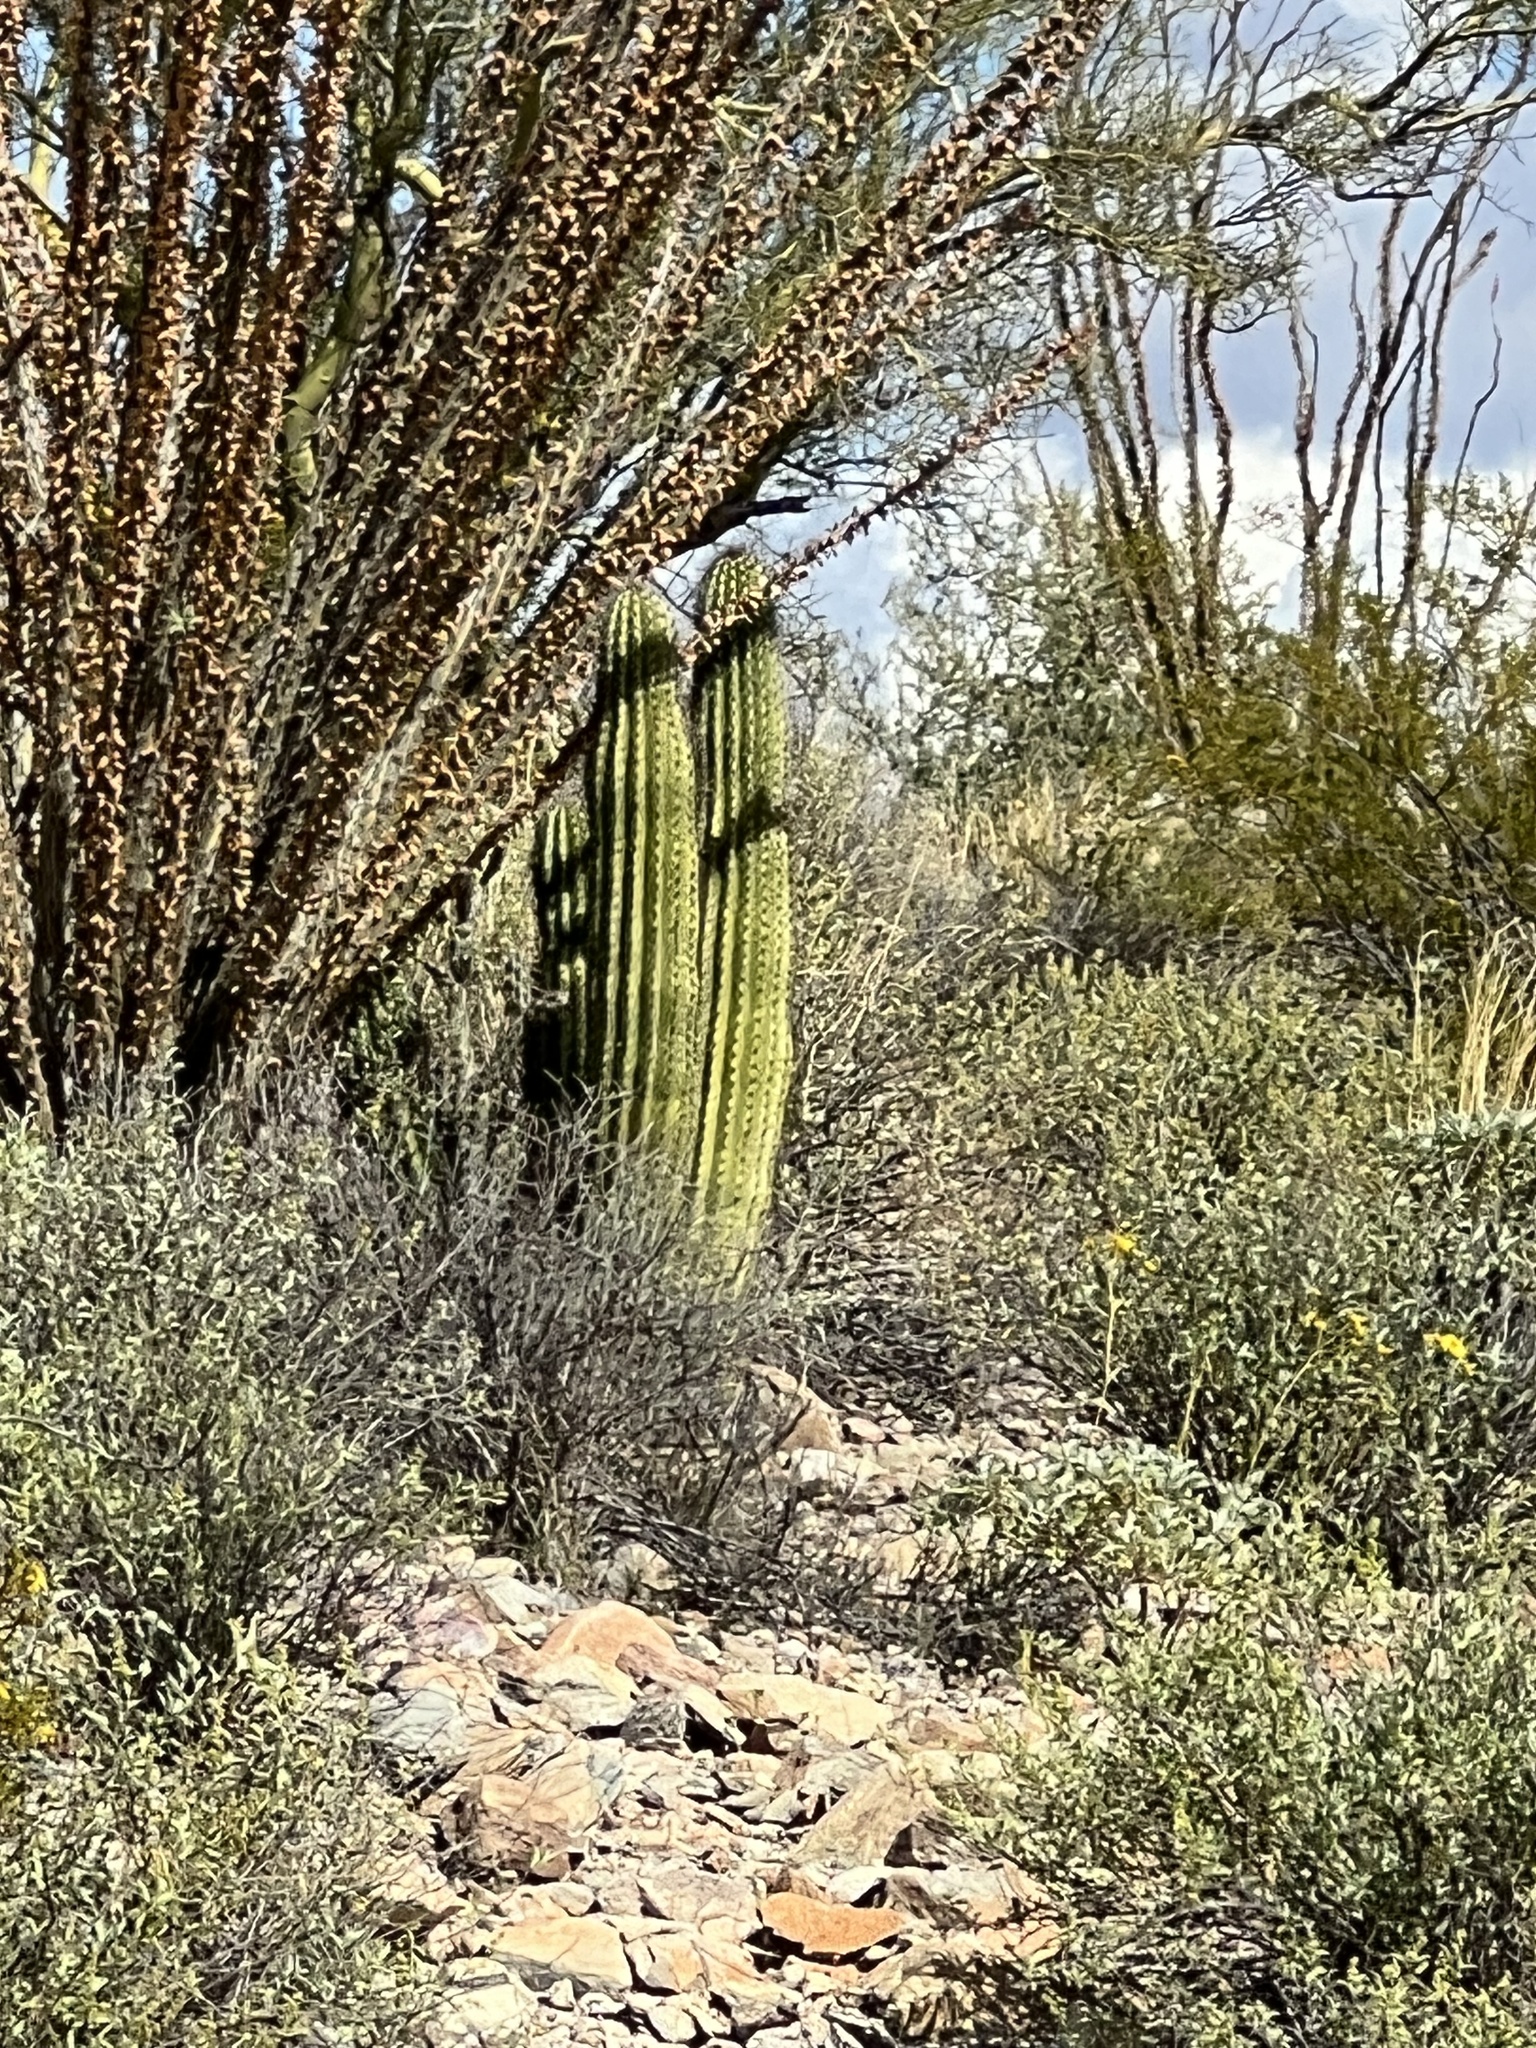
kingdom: Plantae
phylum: Tracheophyta
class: Magnoliopsida
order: Caryophyllales
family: Cactaceae
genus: Stenocereus
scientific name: Stenocereus thurberi
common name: Organ pipe cactus
